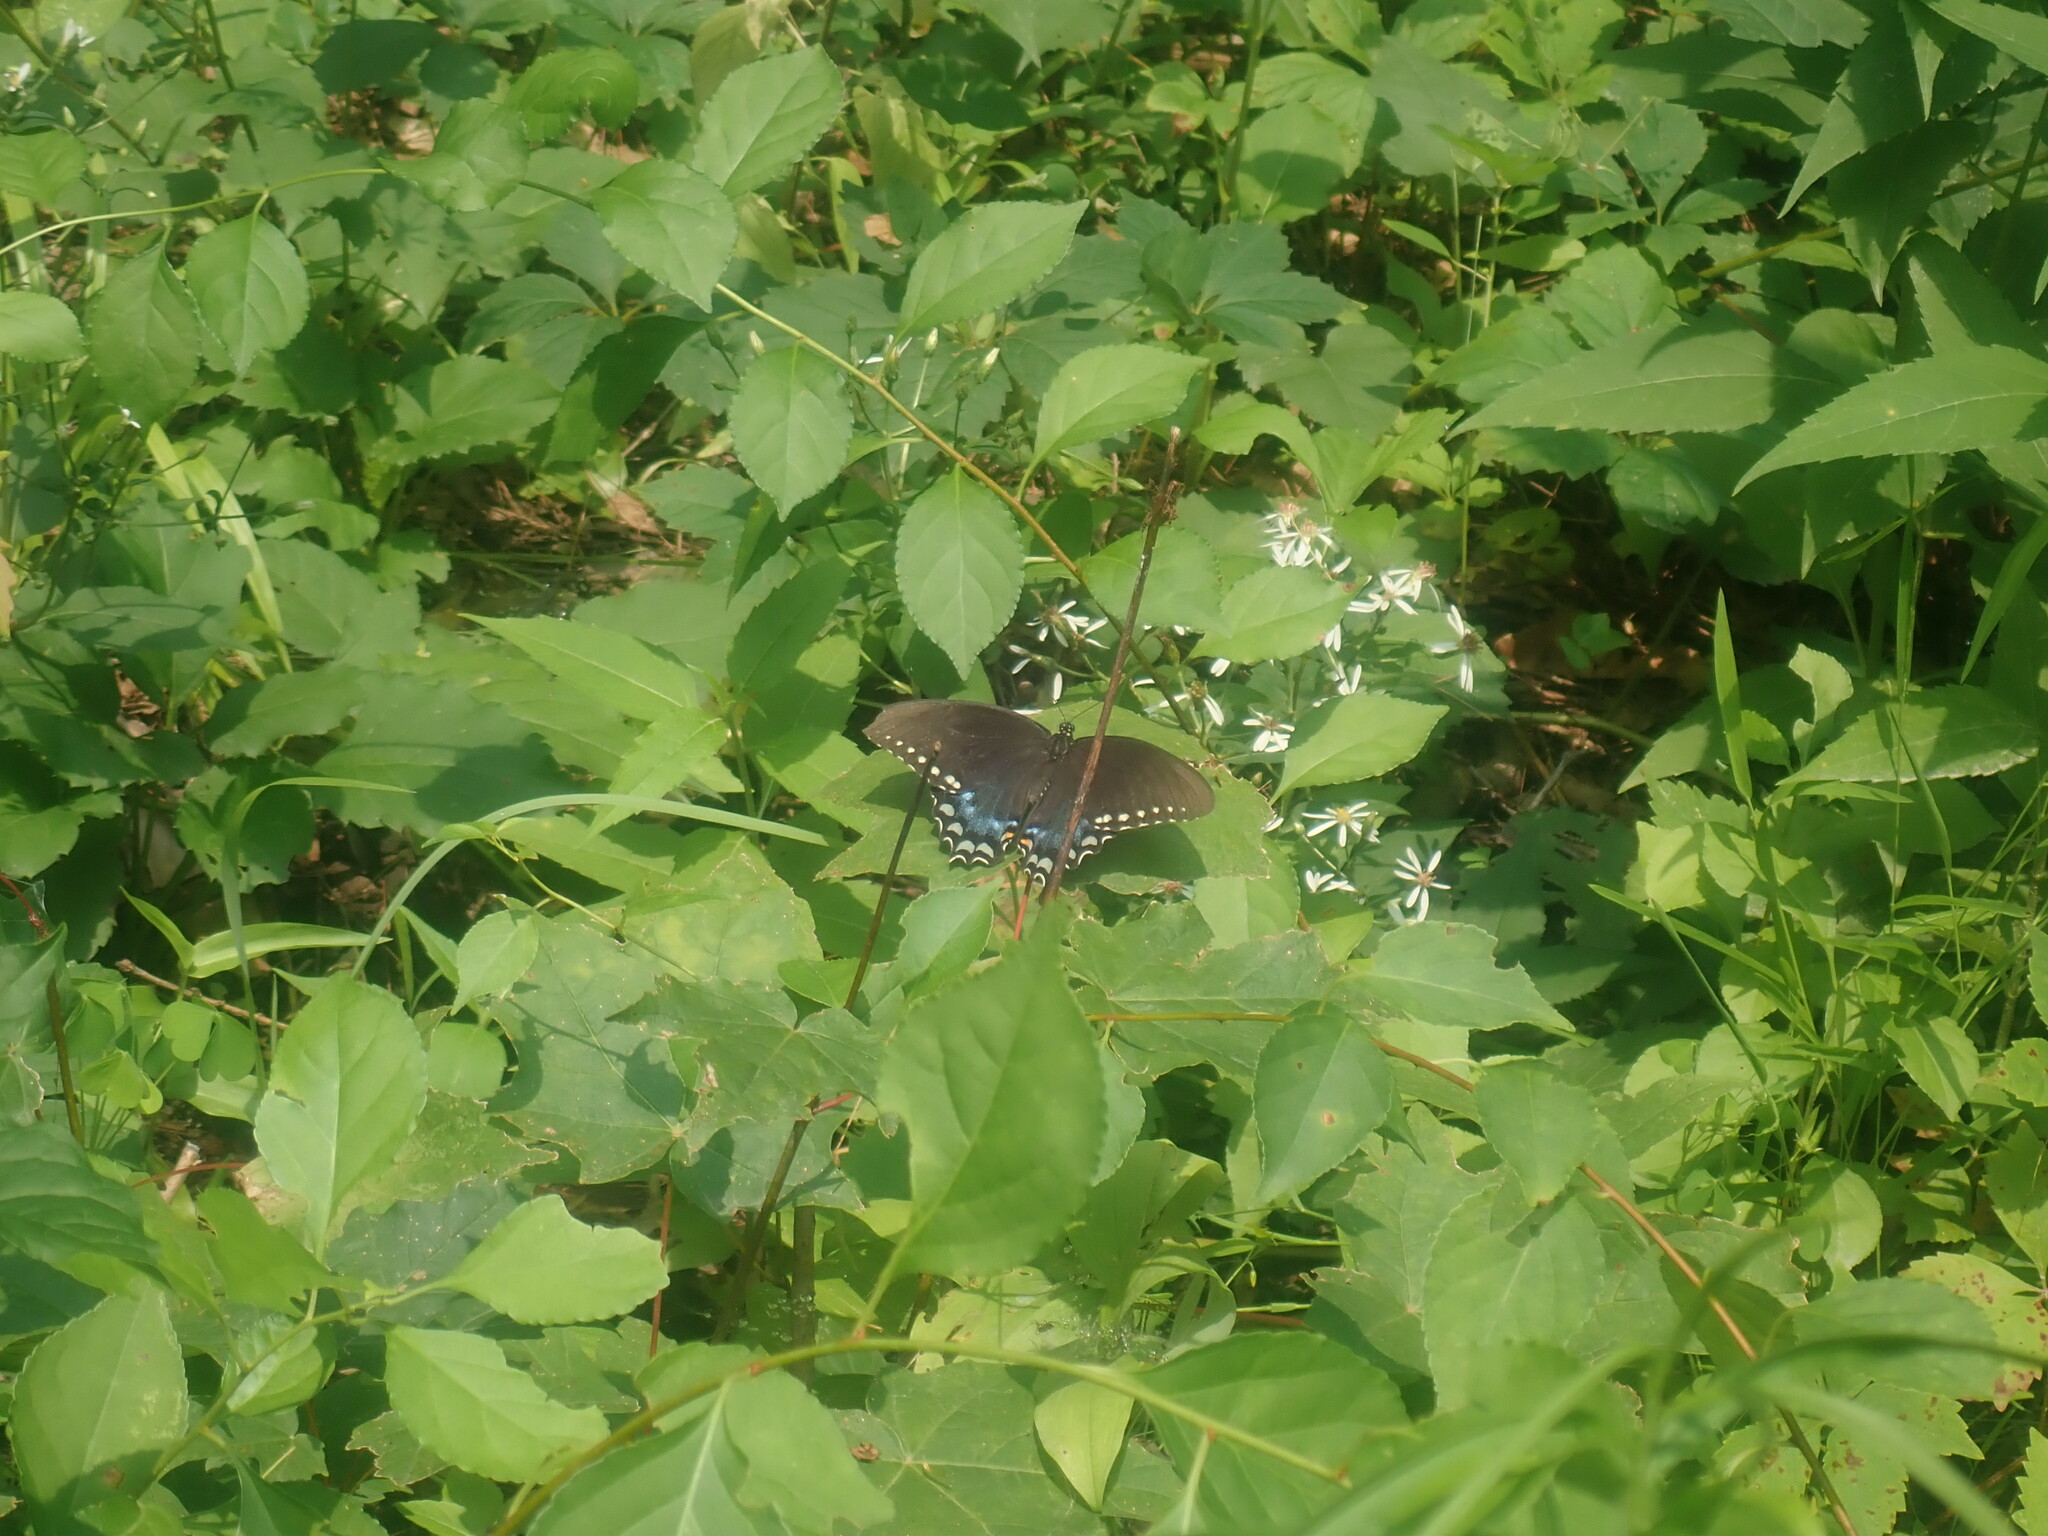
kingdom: Animalia
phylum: Arthropoda
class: Insecta
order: Lepidoptera
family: Papilionidae
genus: Papilio
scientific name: Papilio troilus
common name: Spicebush swallowtail
